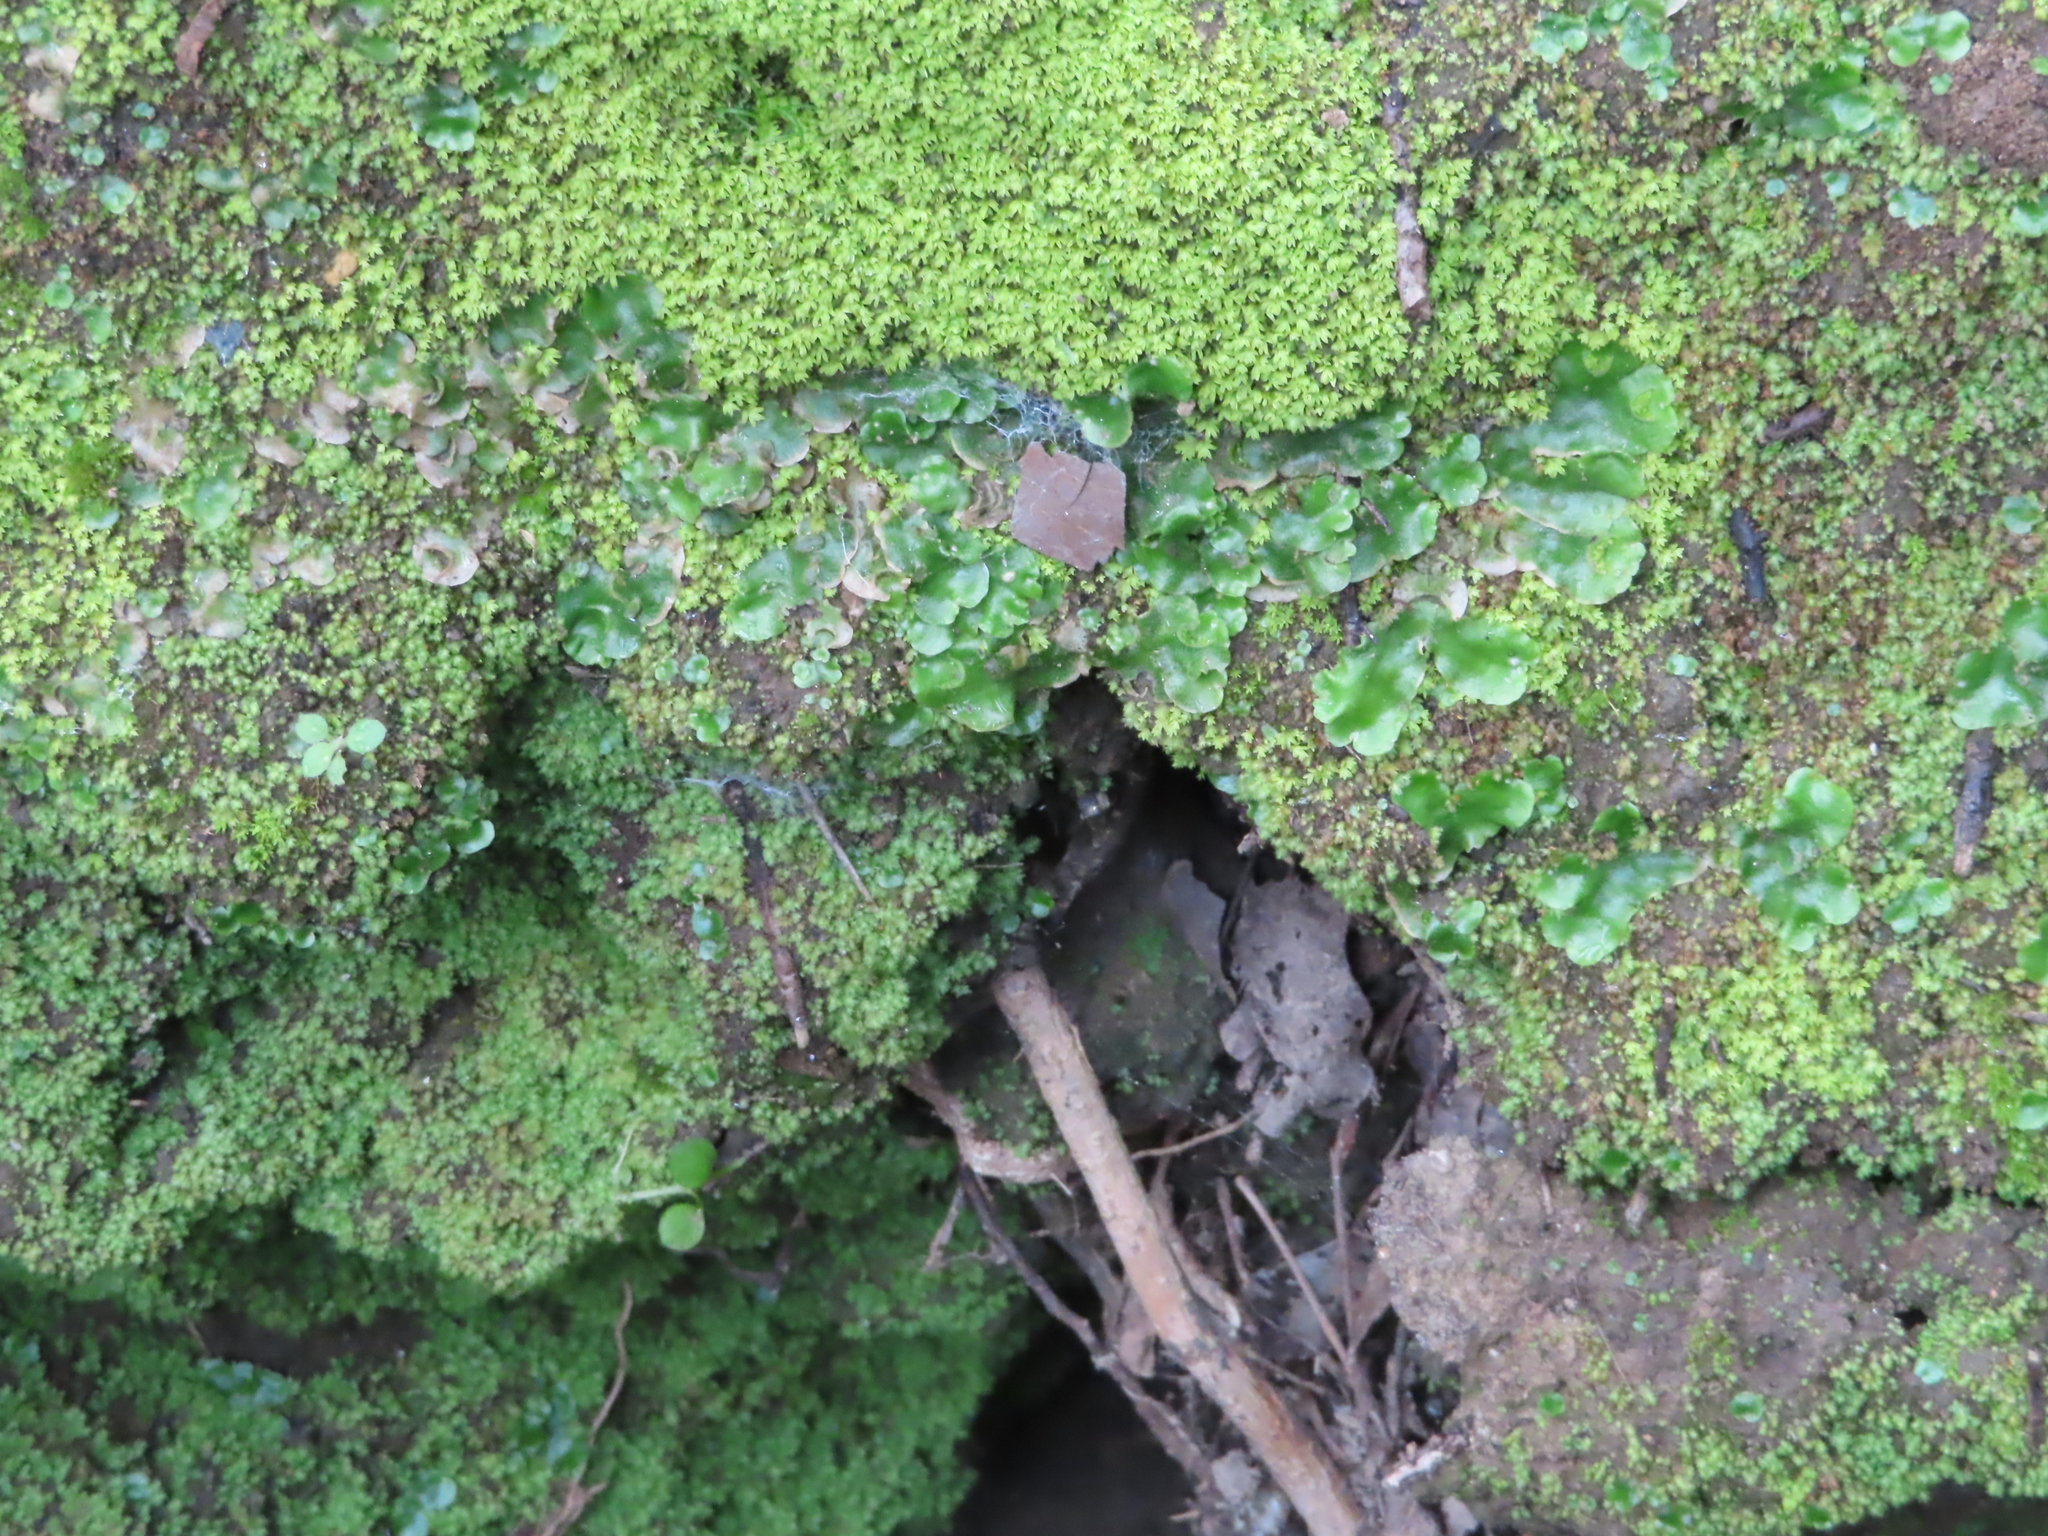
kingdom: Plantae
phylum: Marchantiophyta
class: Marchantiopsida
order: Lunulariales
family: Lunulariaceae
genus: Lunularia
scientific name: Lunularia cruciata
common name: Crescent-cup liverwort
